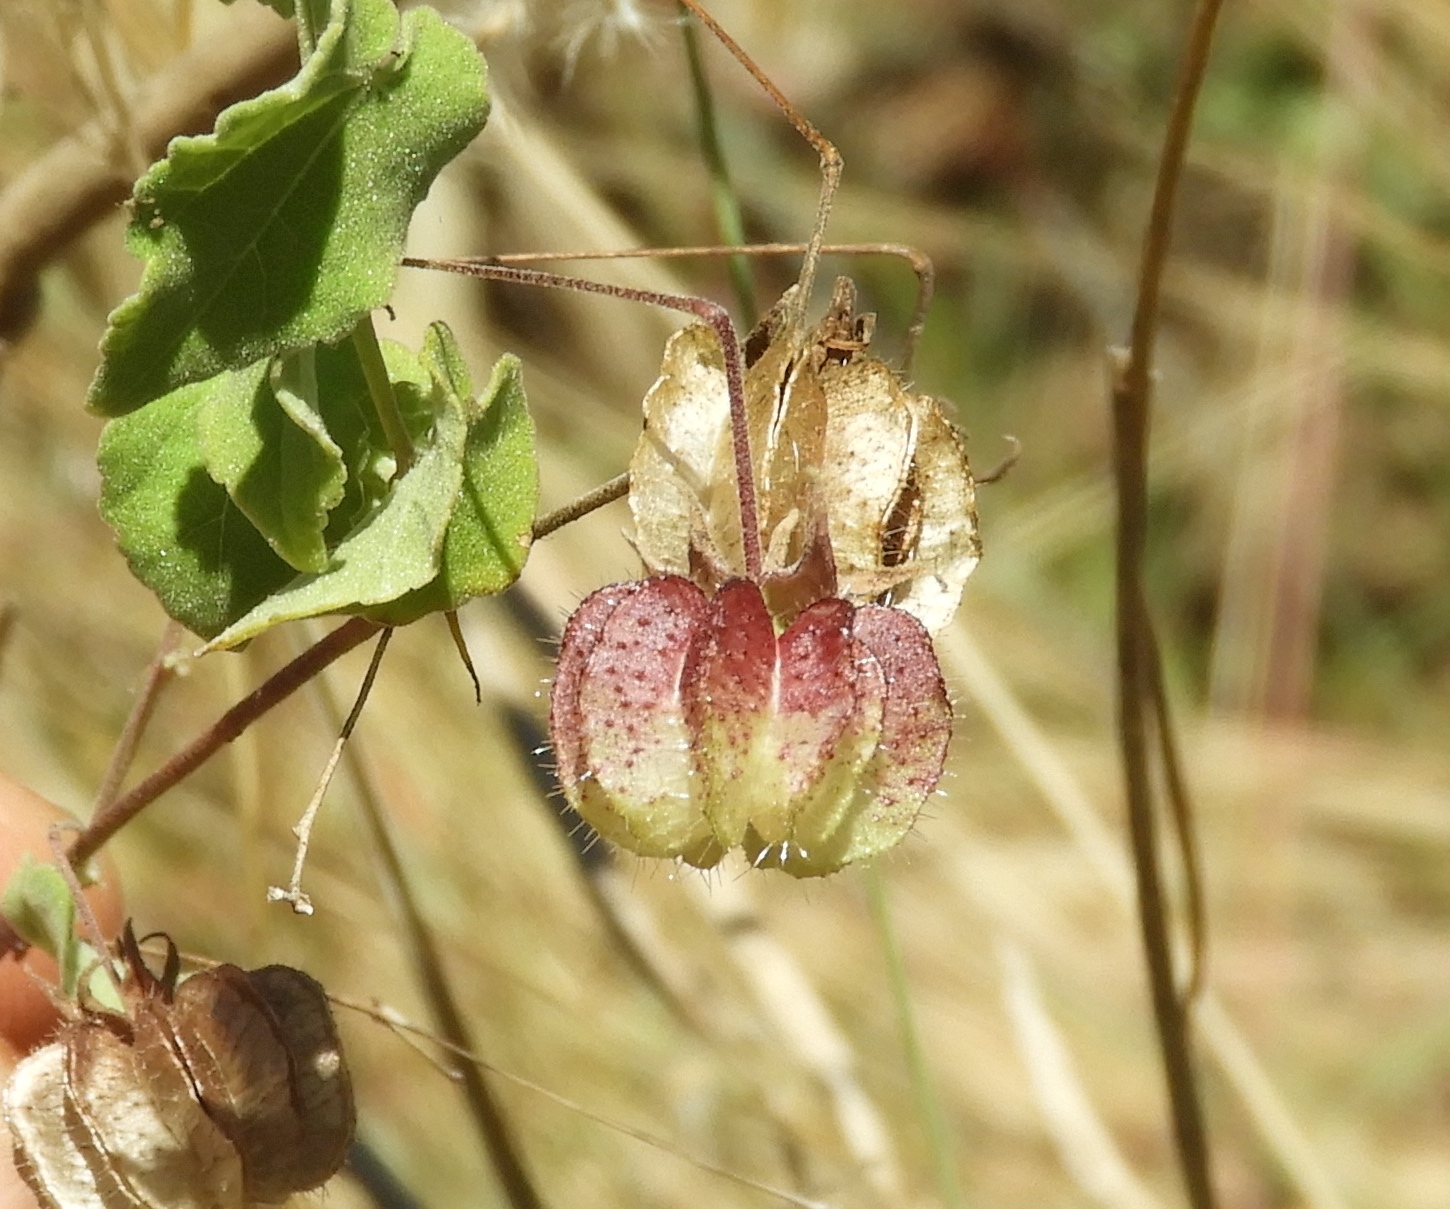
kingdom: Plantae
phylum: Tracheophyta
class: Magnoliopsida
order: Malvales
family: Malvaceae
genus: Herissantia
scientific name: Herissantia crispa
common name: Bladdermallow
